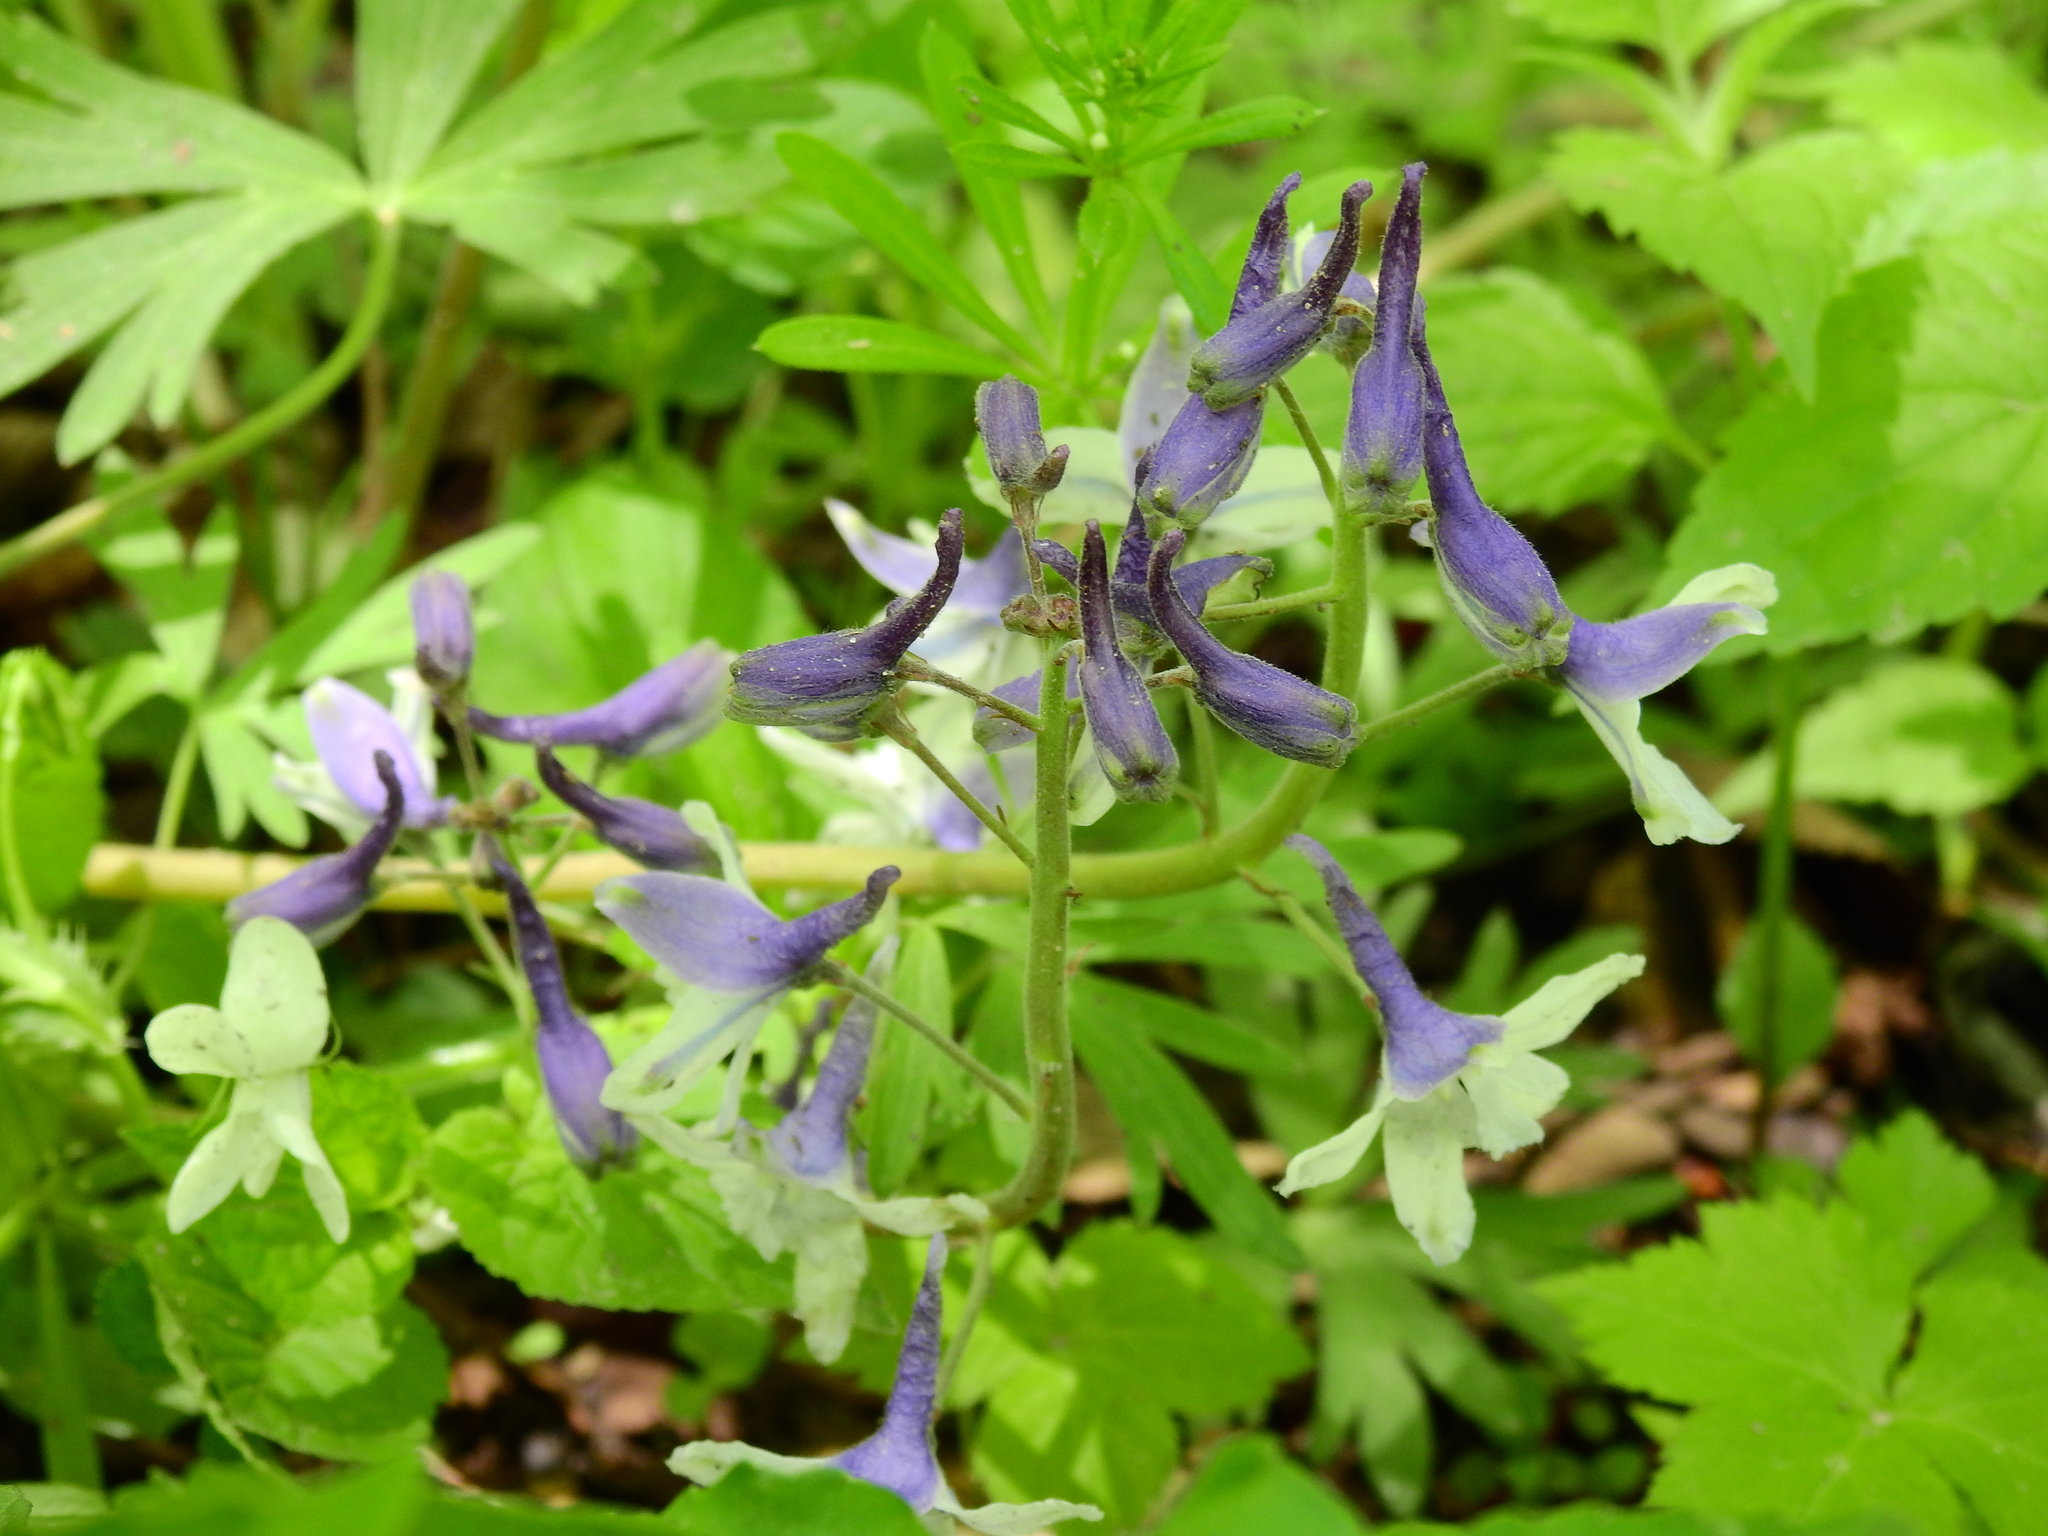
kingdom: Plantae
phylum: Tracheophyta
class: Magnoliopsida
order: Ranunculales
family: Ranunculaceae
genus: Delphinium
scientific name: Delphinium tricorne
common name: Dwarf larkspur
